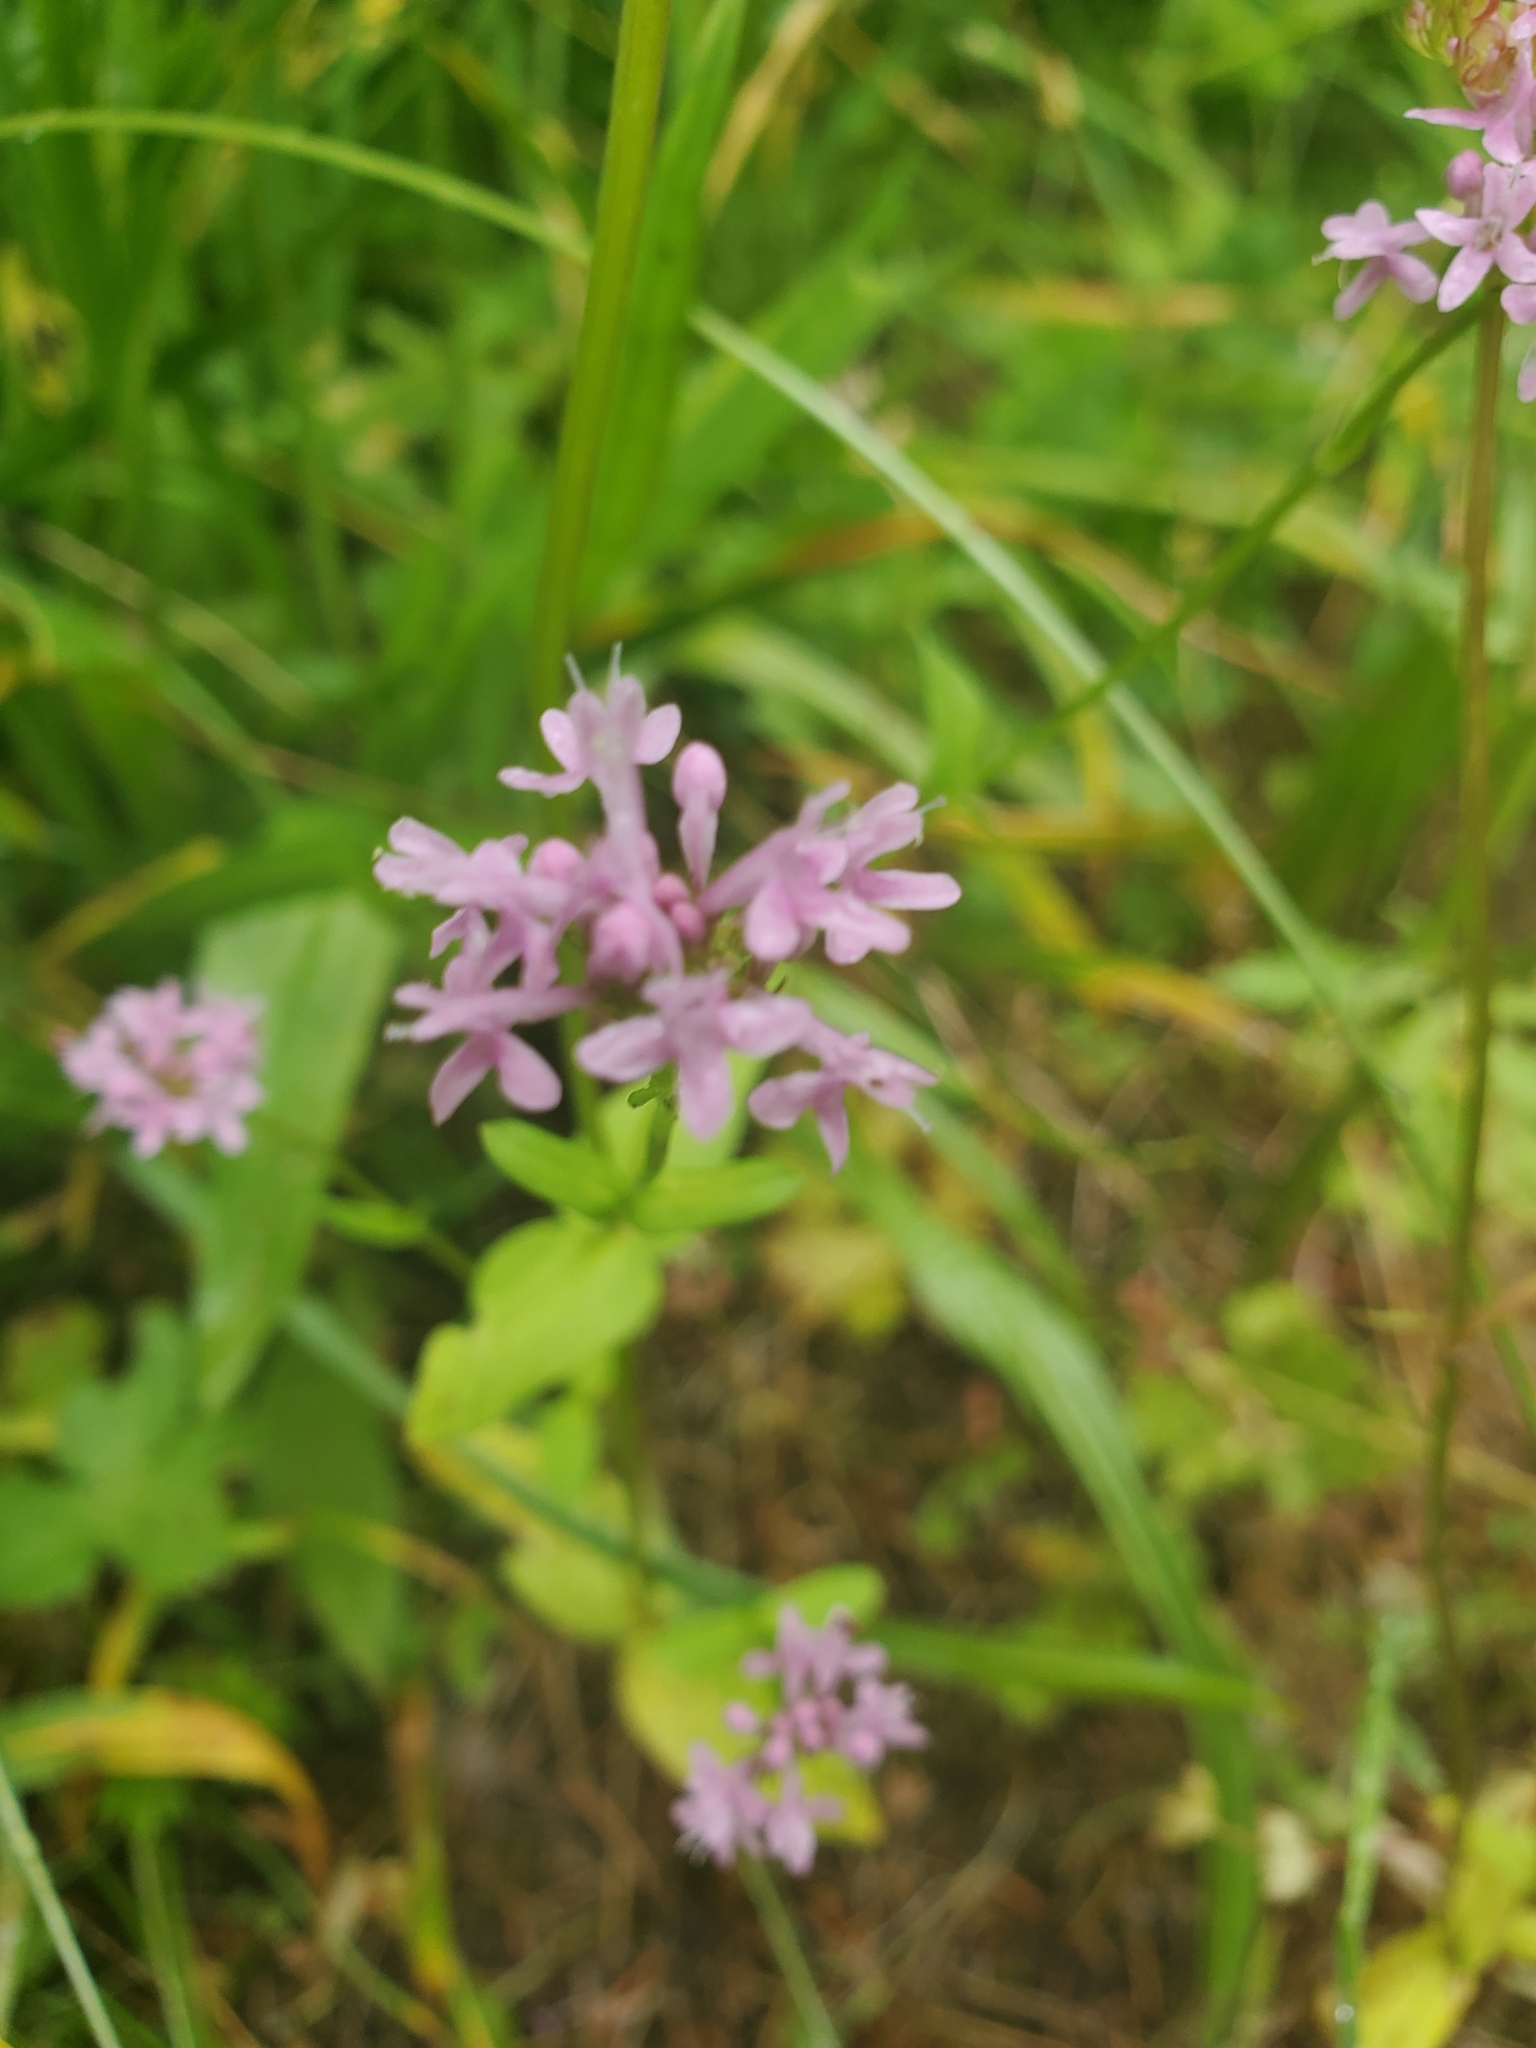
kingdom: Plantae
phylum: Tracheophyta
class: Magnoliopsida
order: Dipsacales
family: Caprifoliaceae
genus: Plectritis
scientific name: Plectritis congesta
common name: Pink plectritis
